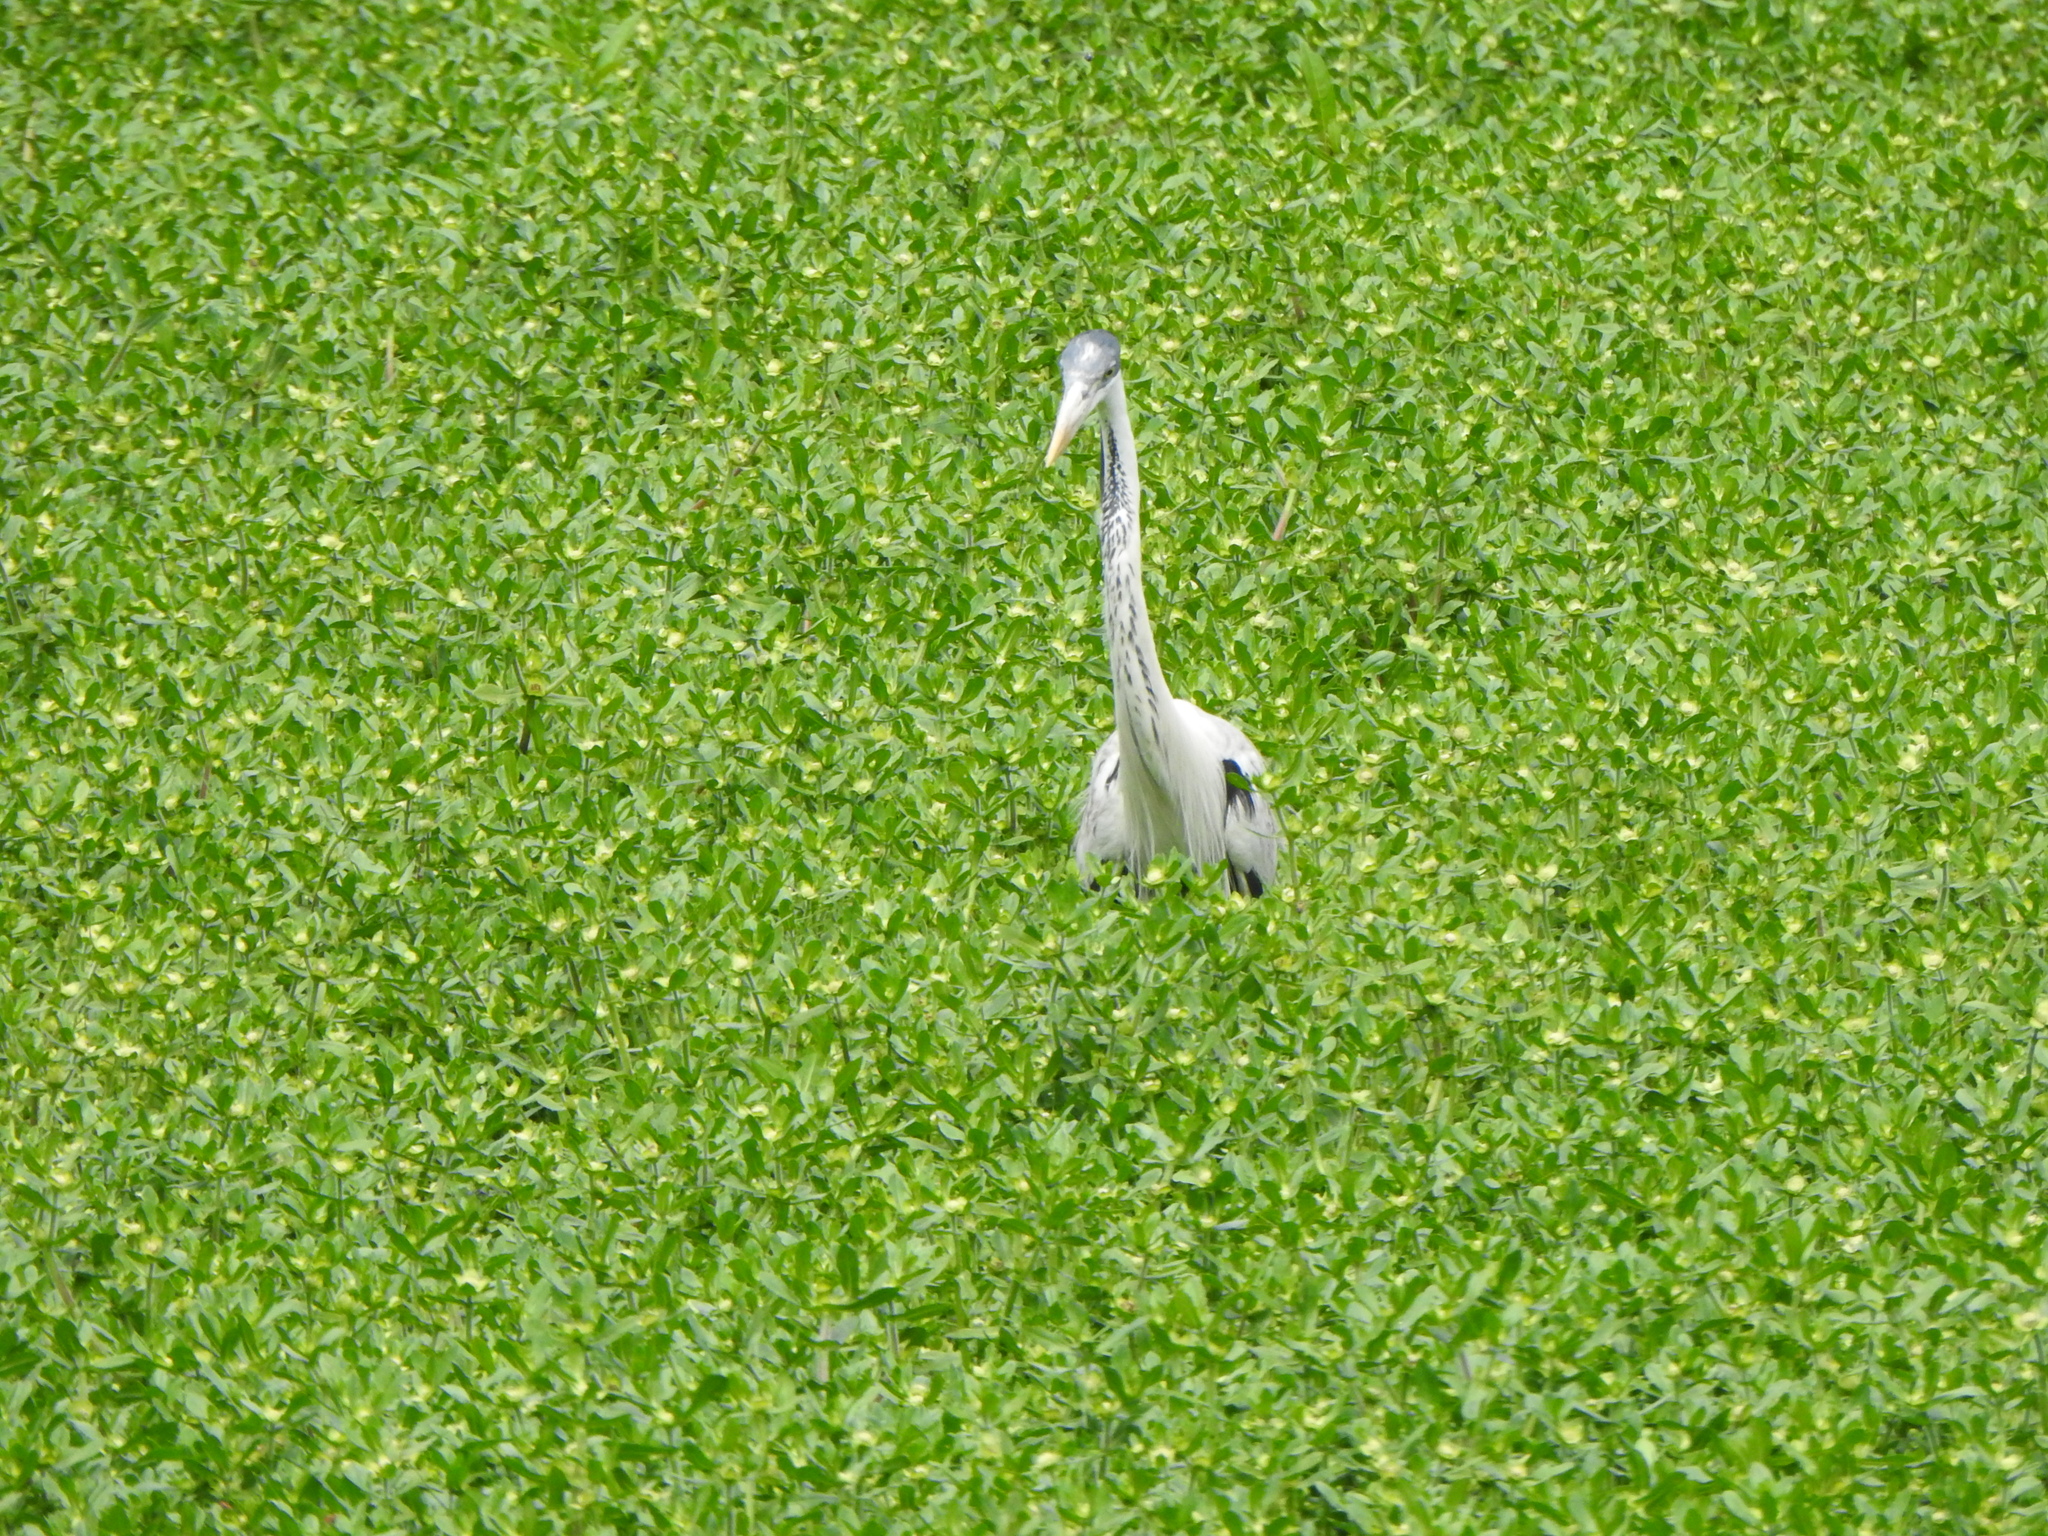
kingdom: Animalia
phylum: Chordata
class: Aves
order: Pelecaniformes
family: Ardeidae
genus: Ardea
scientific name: Ardea cocoi
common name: Cocoi heron
